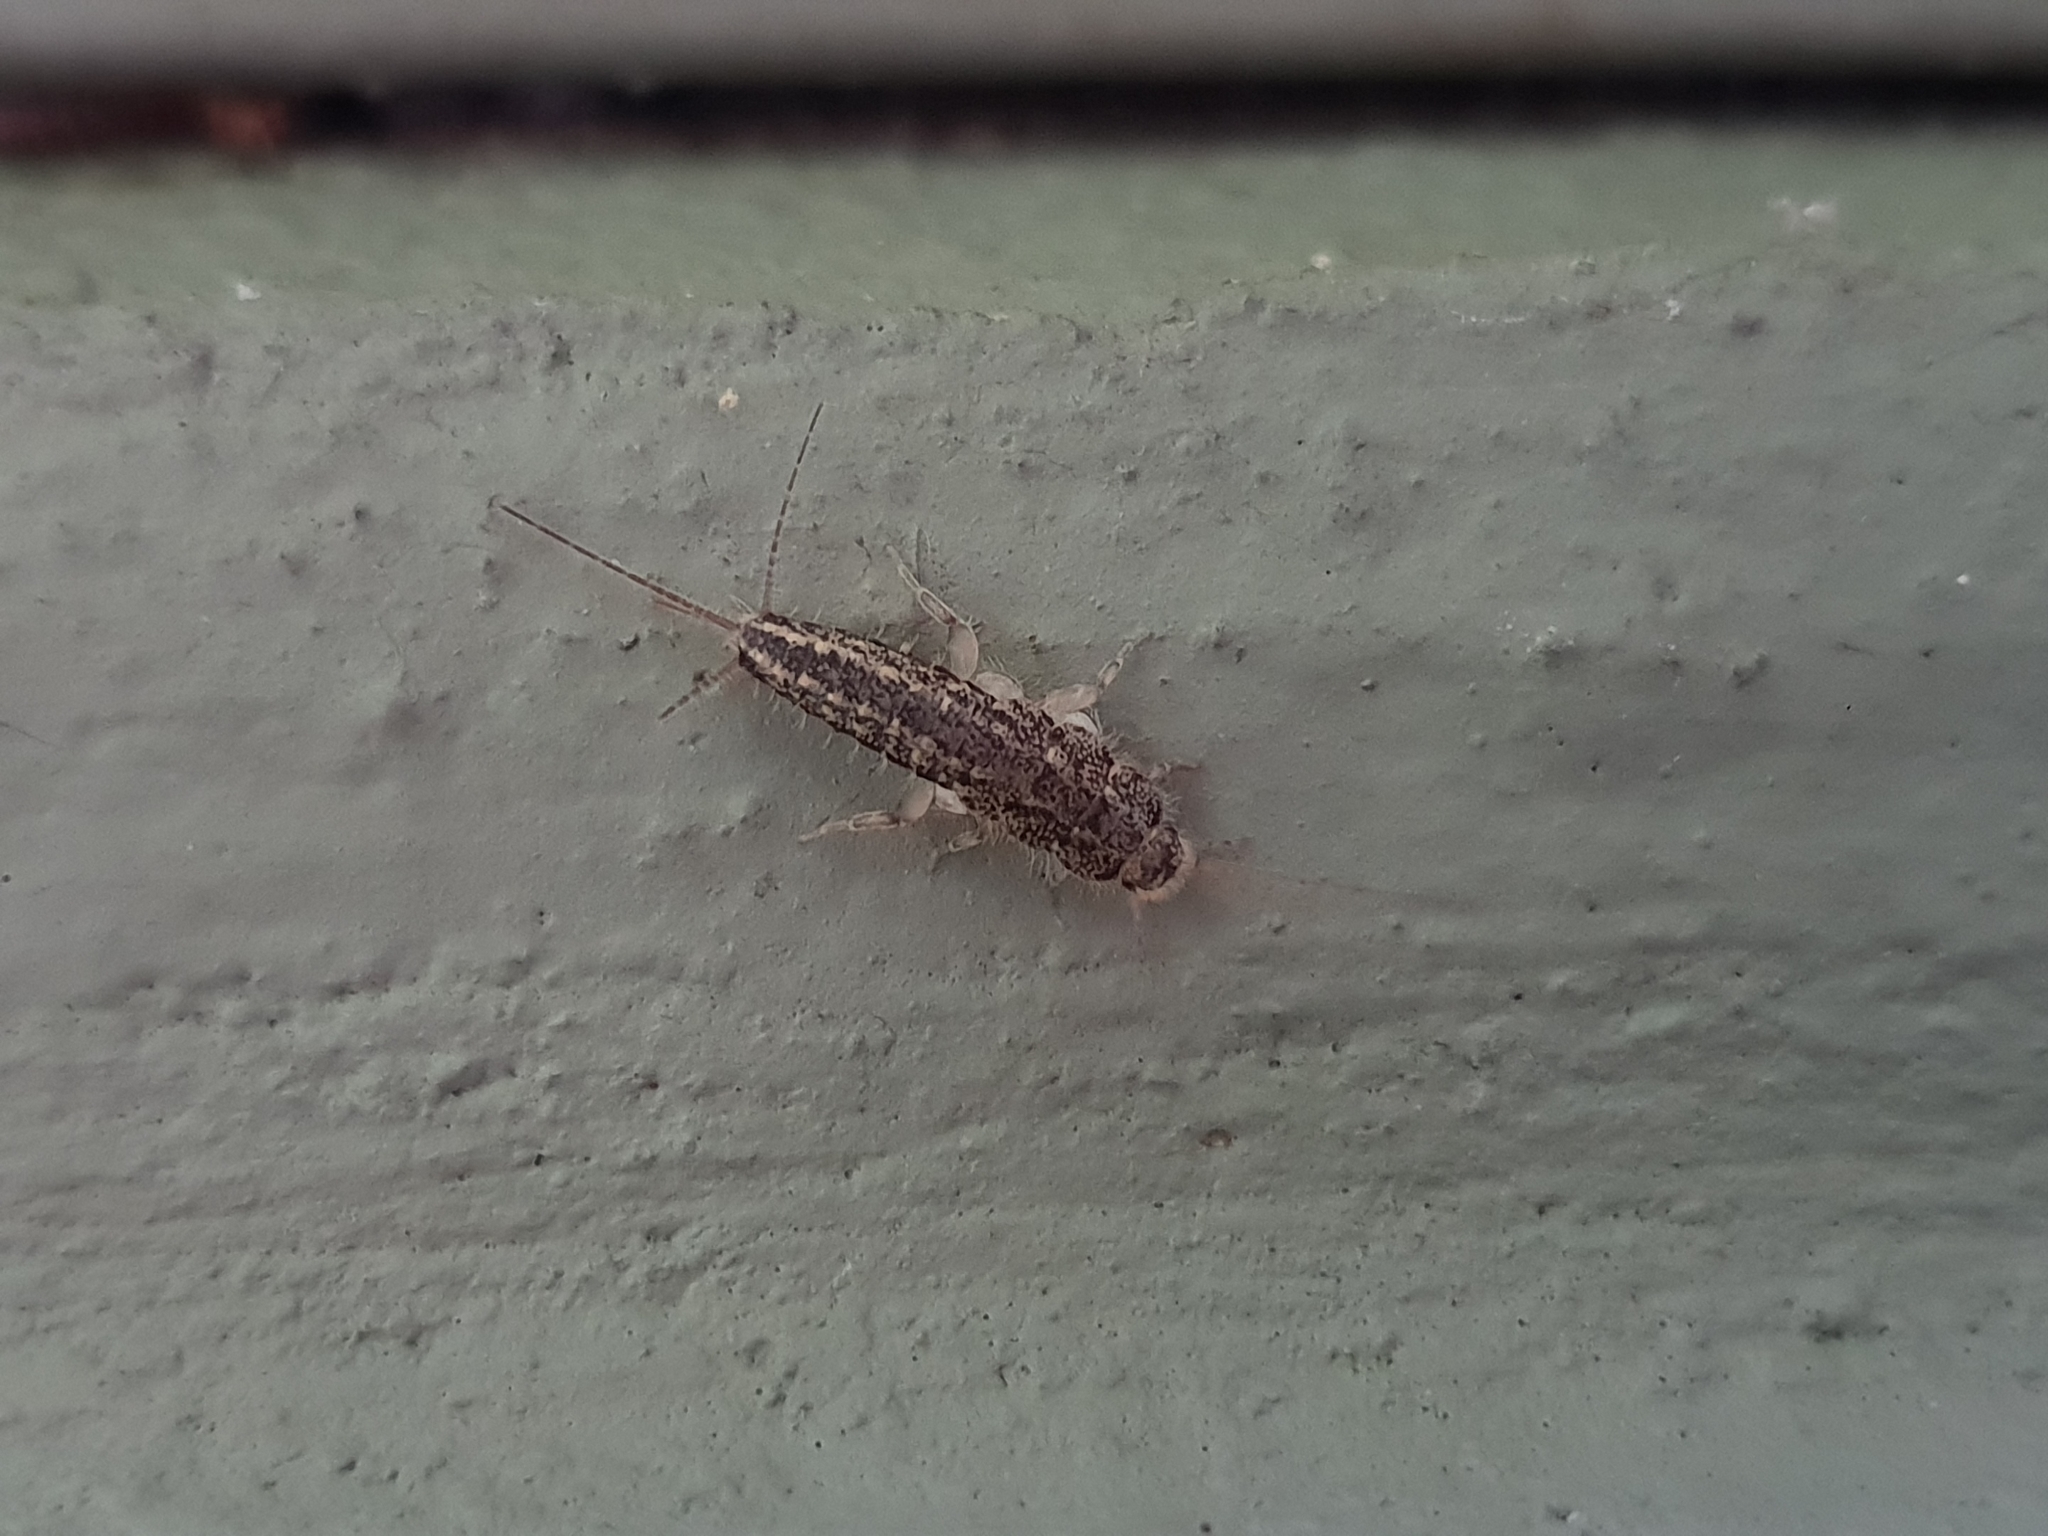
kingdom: Animalia
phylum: Arthropoda
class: Insecta
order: Zygentoma
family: Lepismatidae
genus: Ctenolepisma
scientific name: Ctenolepisma lineata
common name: Four-lined silverfish
